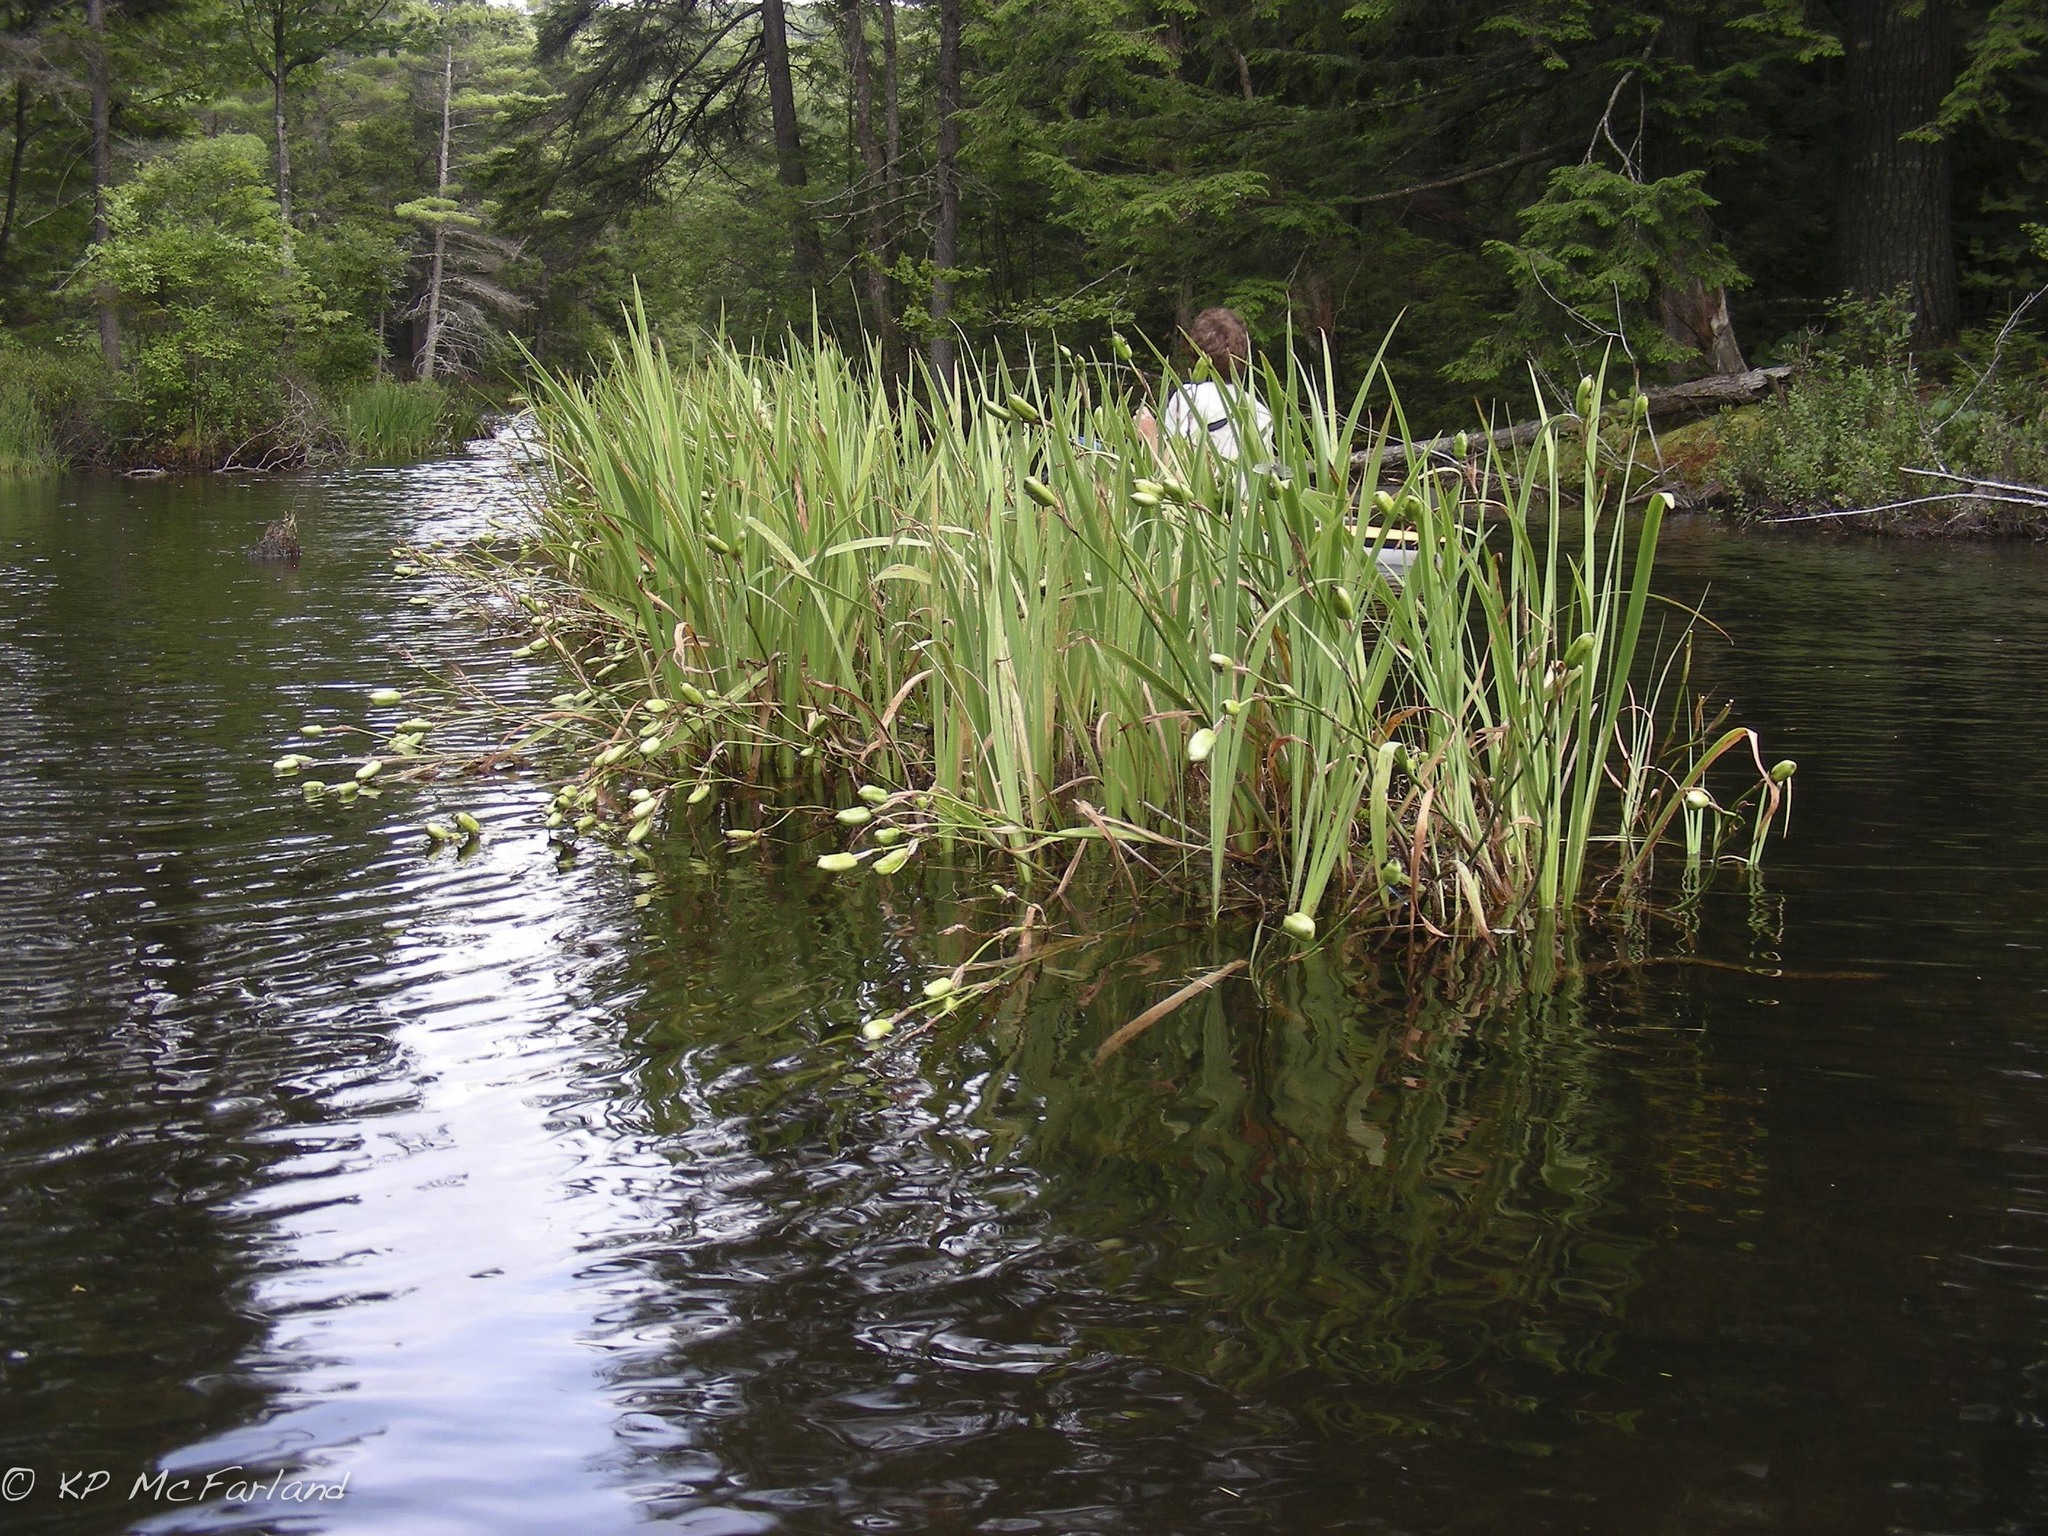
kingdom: Plantae
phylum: Tracheophyta
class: Liliopsida
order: Asparagales
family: Iridaceae
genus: Iris
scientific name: Iris versicolor
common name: Purple iris
